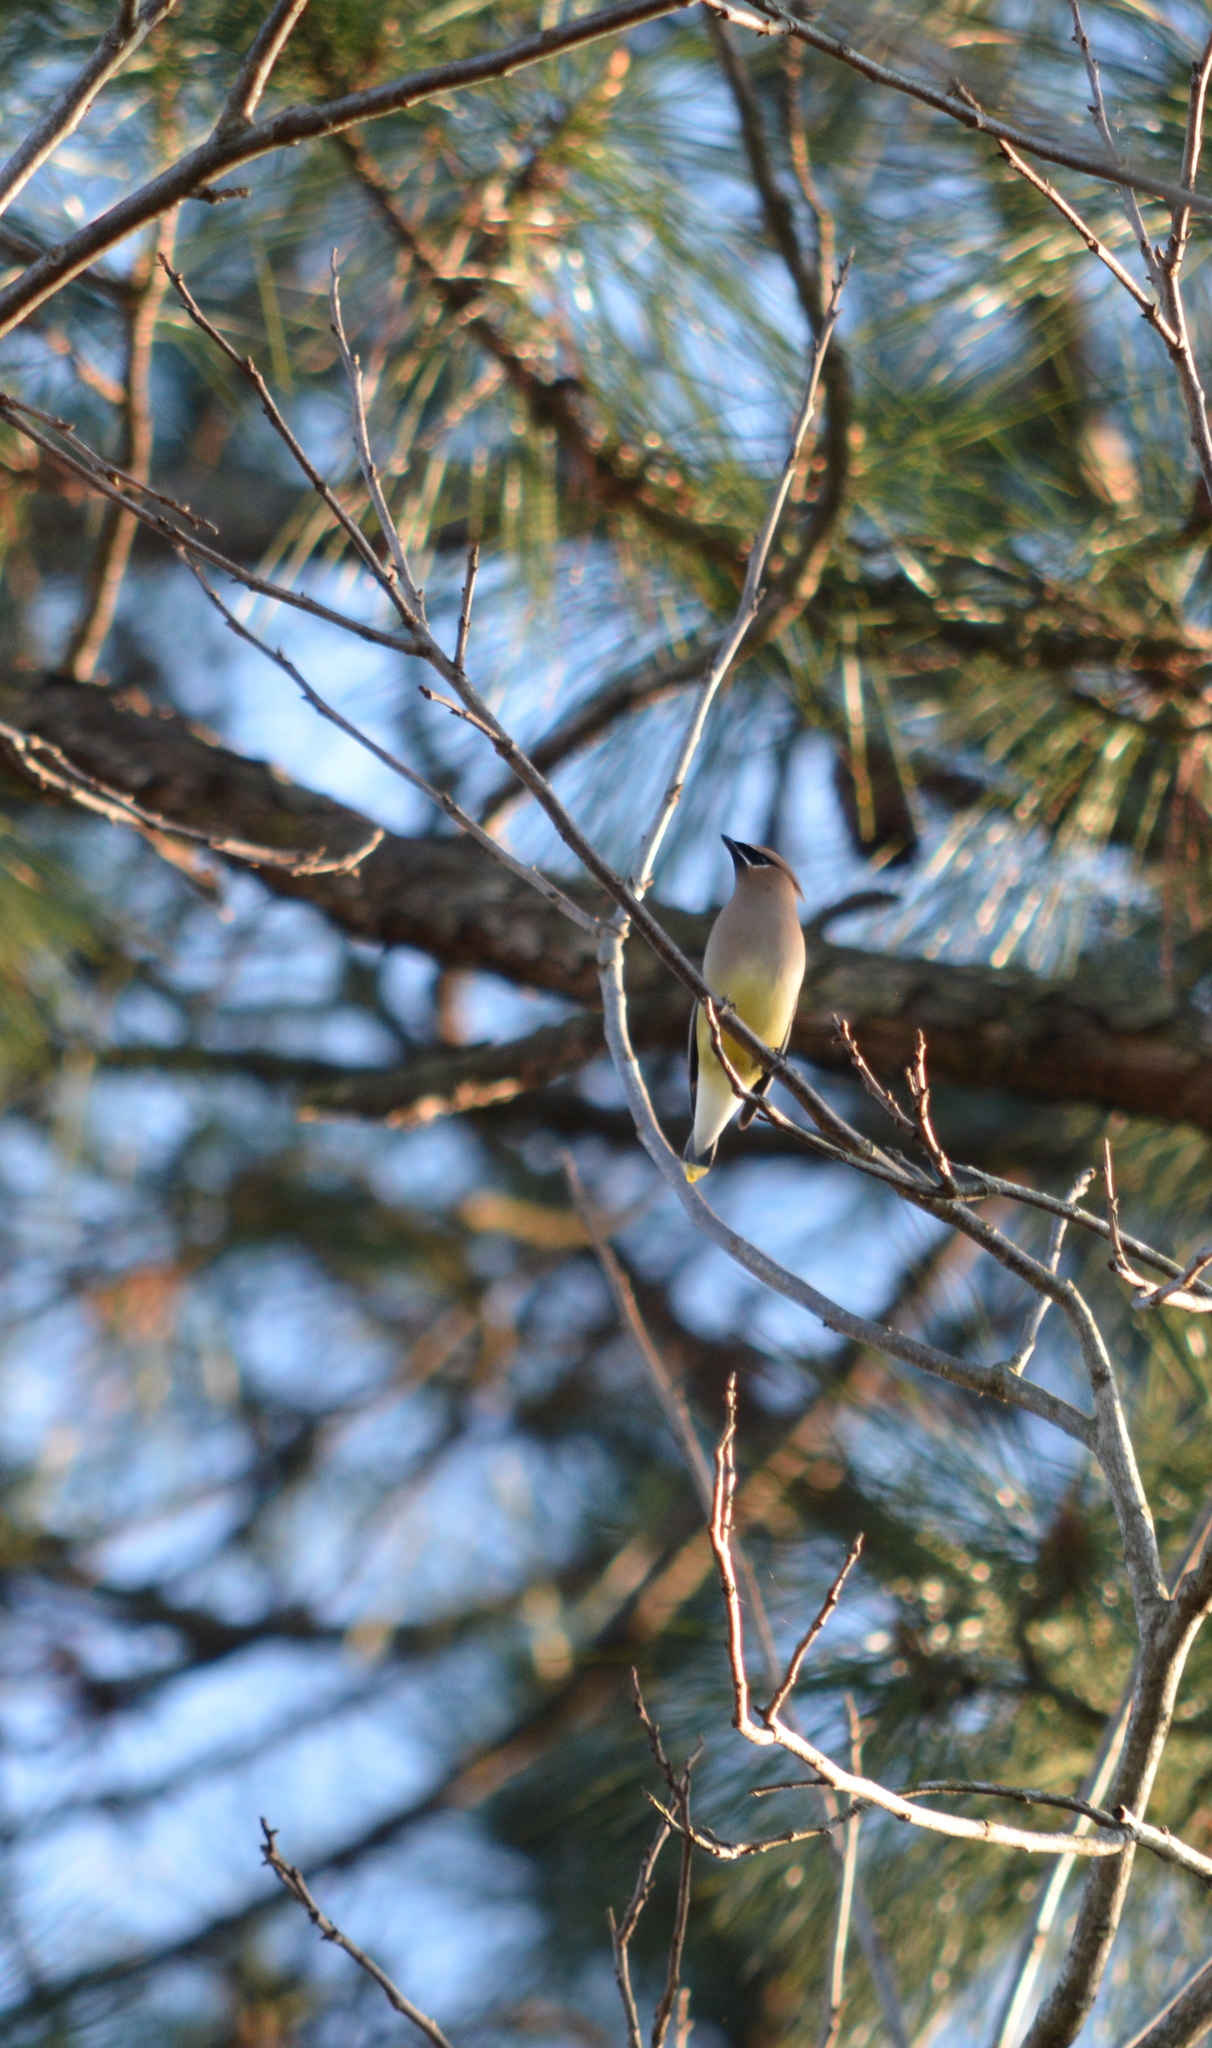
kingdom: Animalia
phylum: Chordata
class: Aves
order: Passeriformes
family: Bombycillidae
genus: Bombycilla
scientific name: Bombycilla cedrorum
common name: Cedar waxwing
